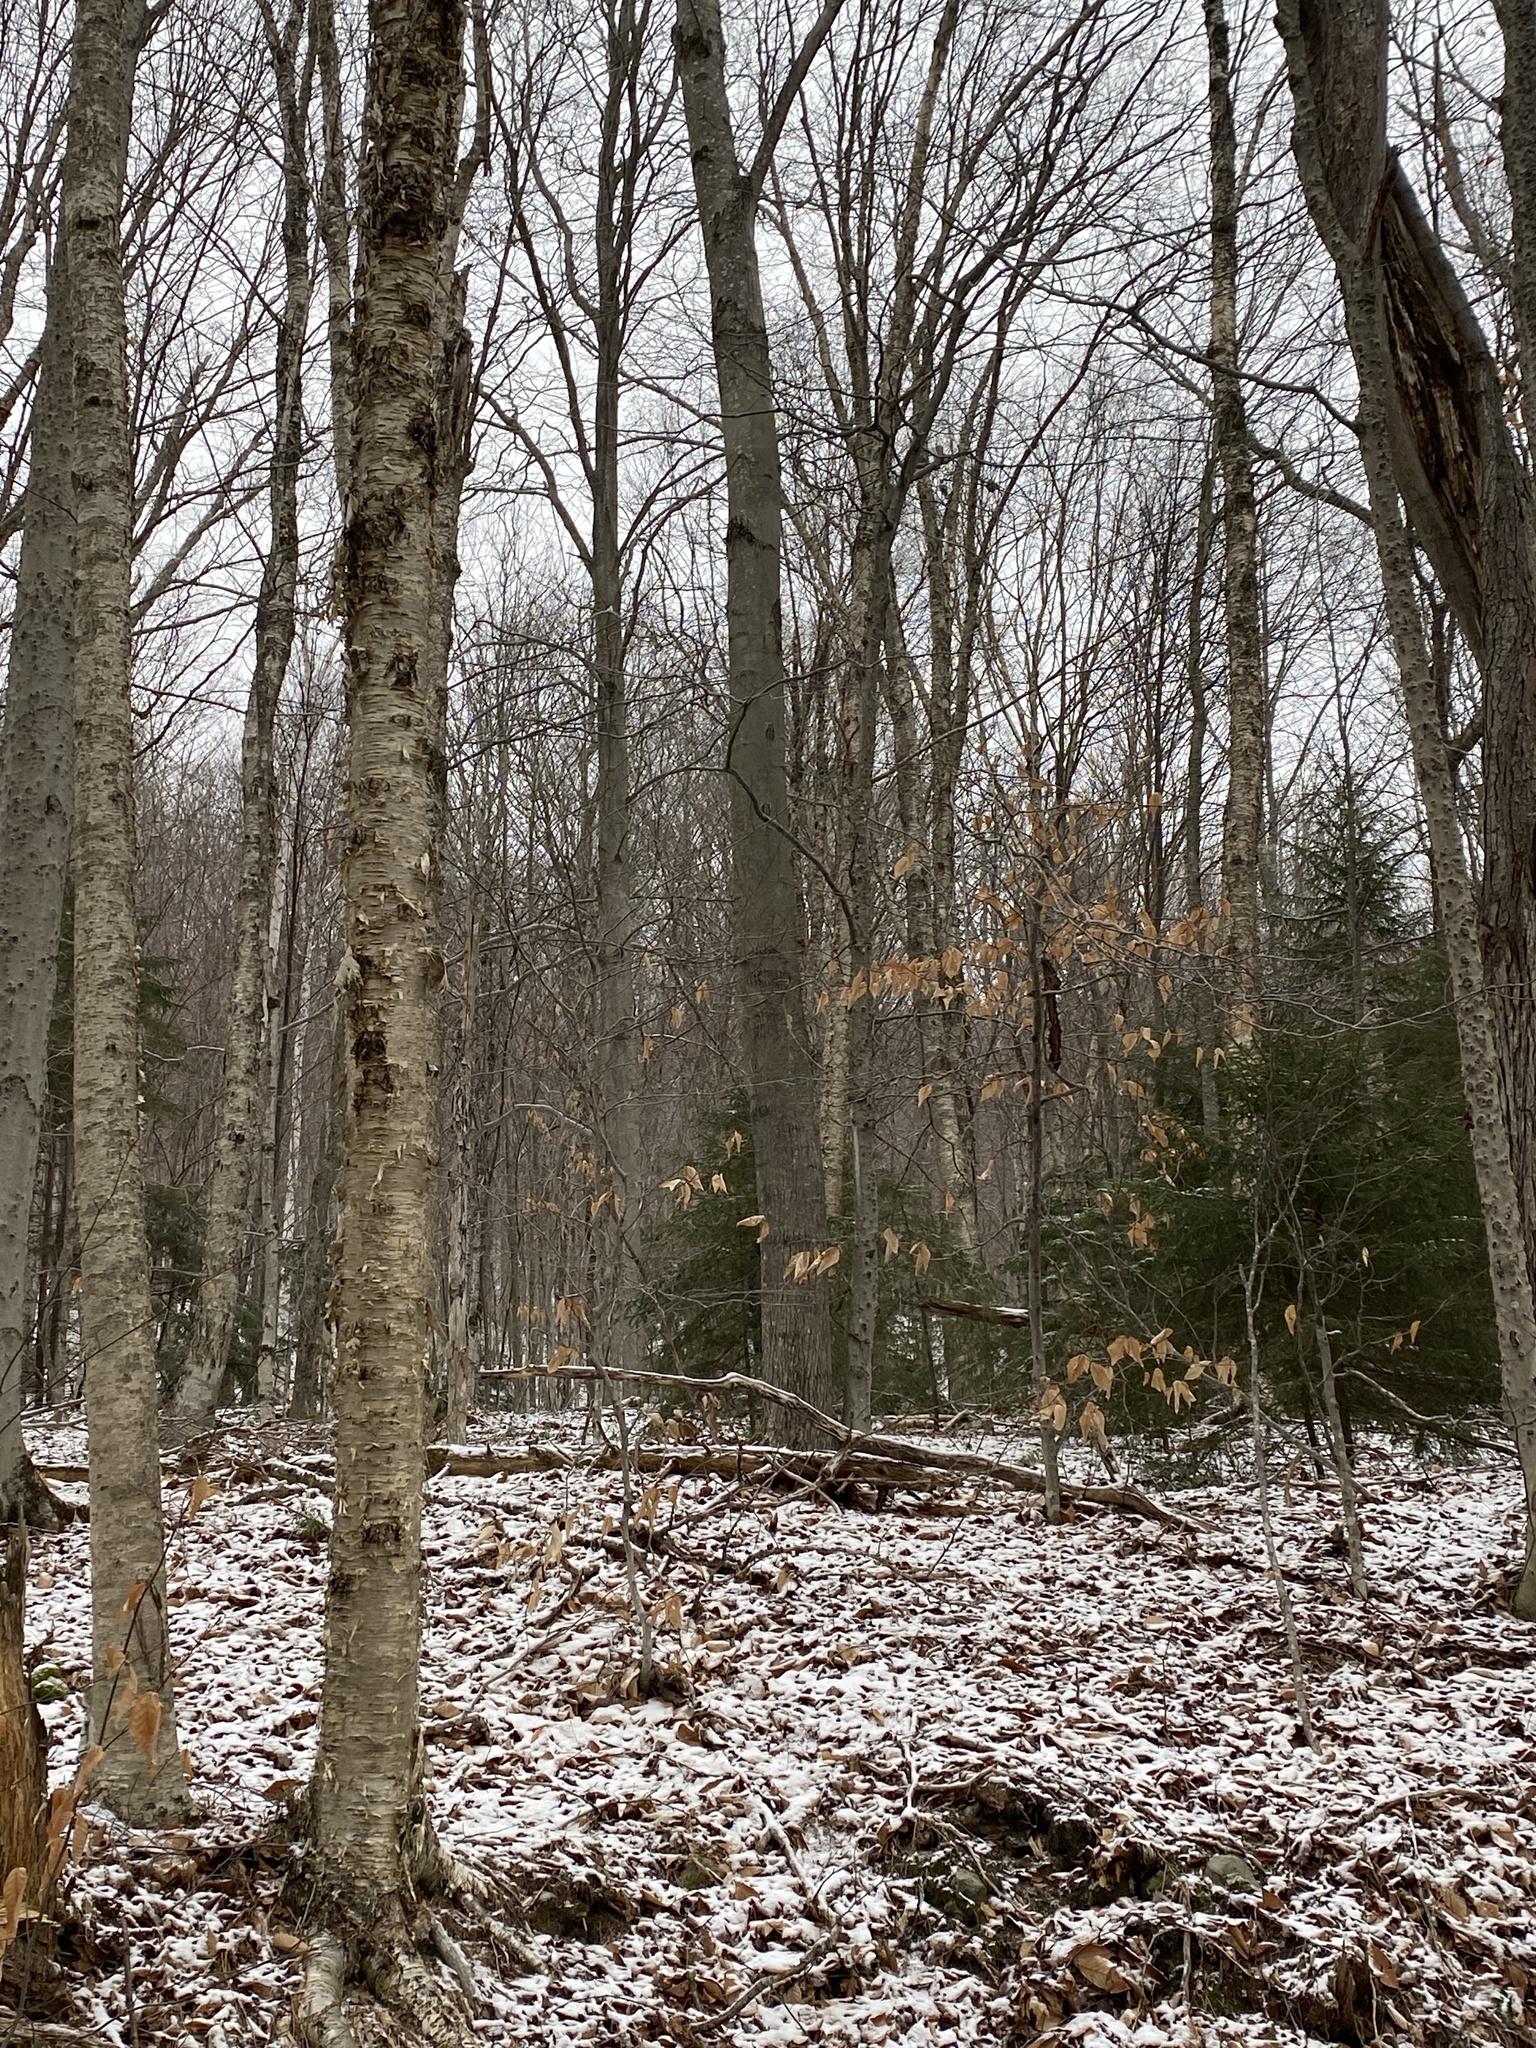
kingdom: Plantae
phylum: Tracheophyta
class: Magnoliopsida
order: Fagales
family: Fagaceae
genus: Fagus
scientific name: Fagus grandifolia
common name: American beech
